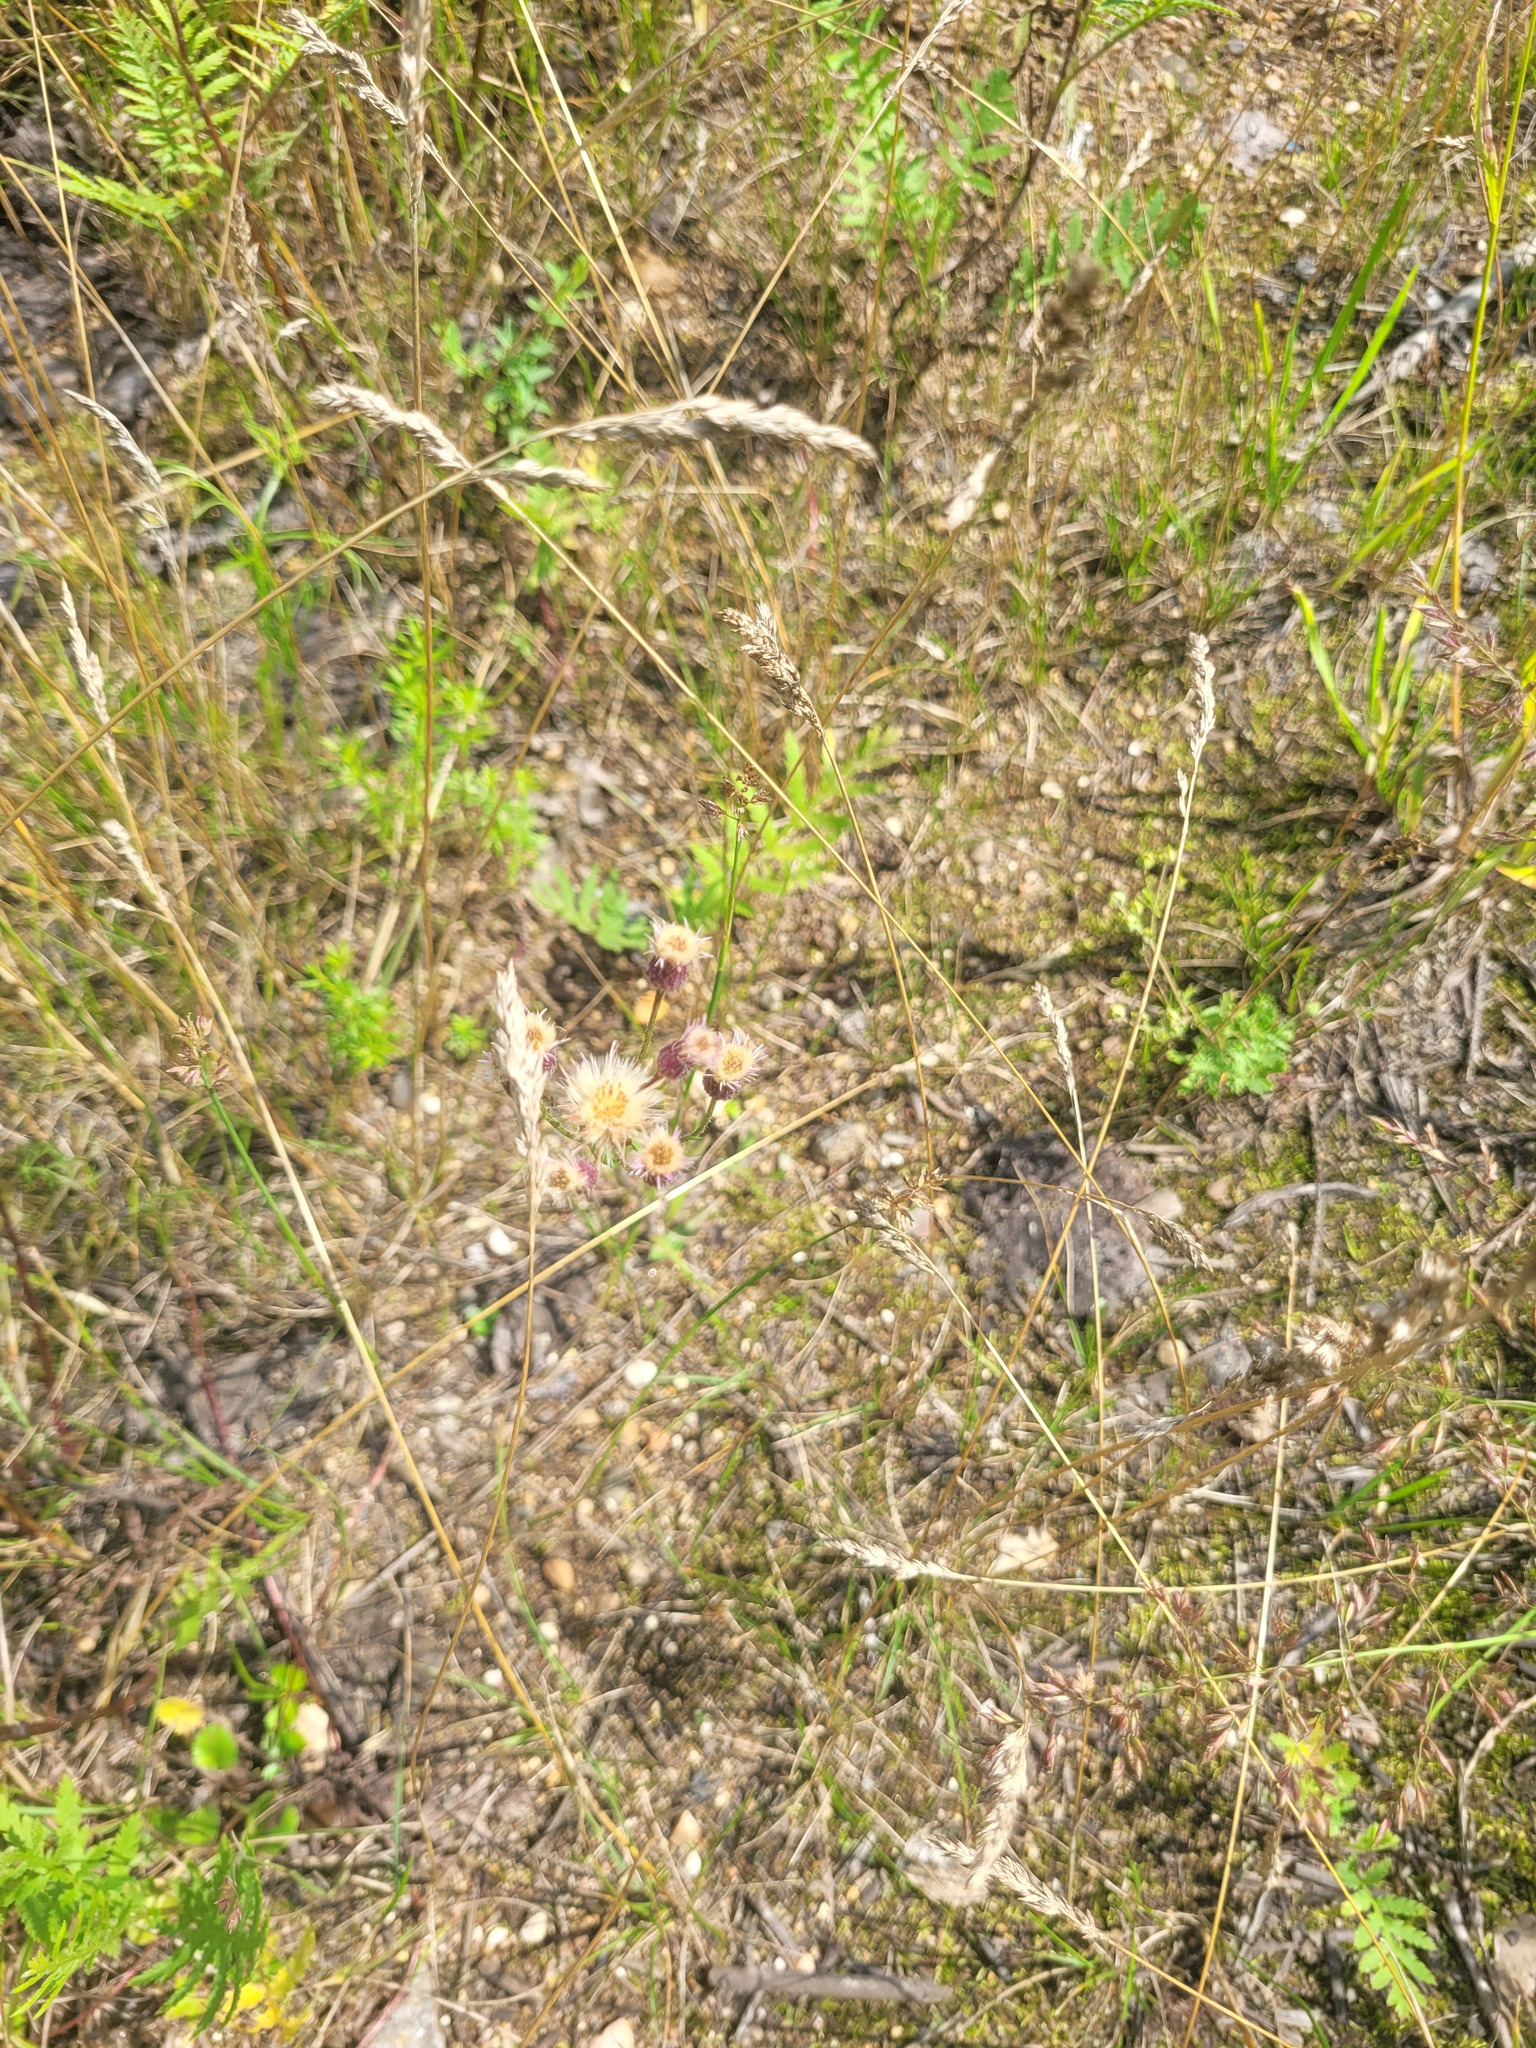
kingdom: Plantae
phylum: Tracheophyta
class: Magnoliopsida
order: Asterales
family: Asteraceae
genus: Erigeron
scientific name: Erigeron acris
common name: Blue fleabane
